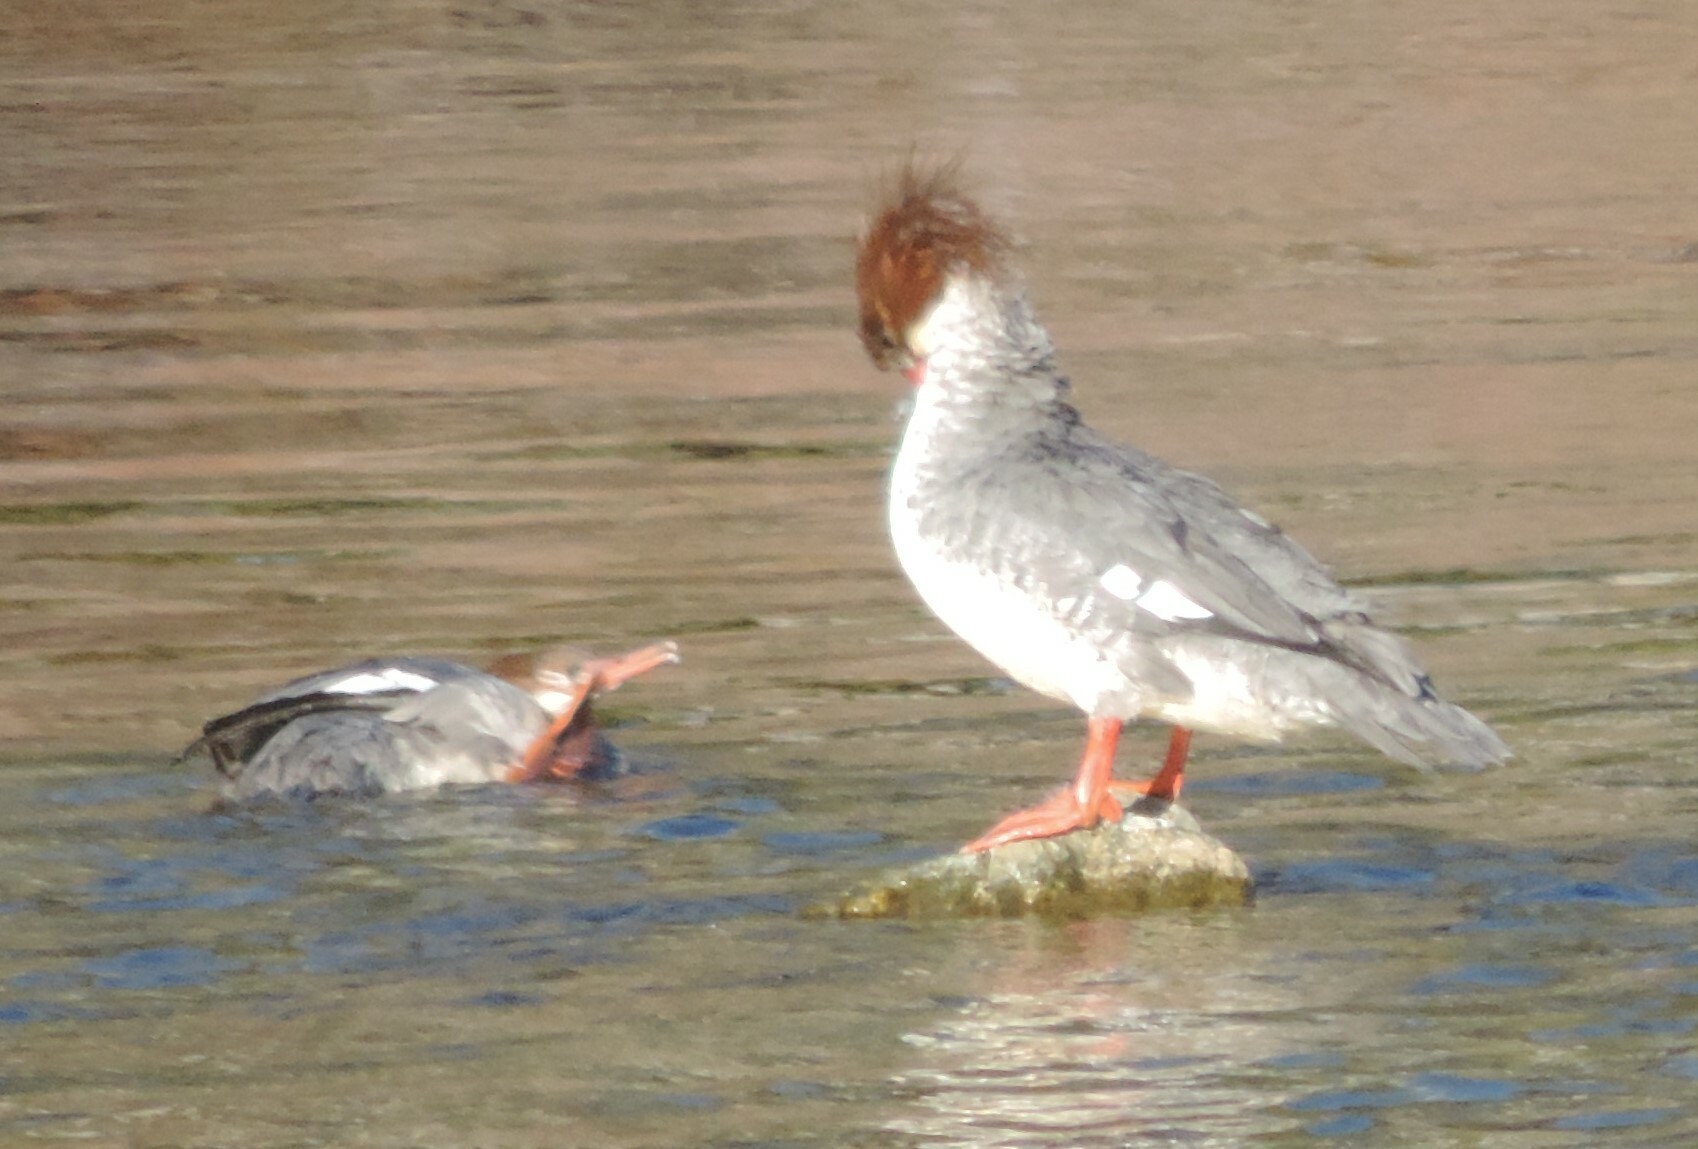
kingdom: Animalia
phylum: Chordata
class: Aves
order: Anseriformes
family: Anatidae
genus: Mergus
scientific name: Mergus merganser
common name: Common merganser
